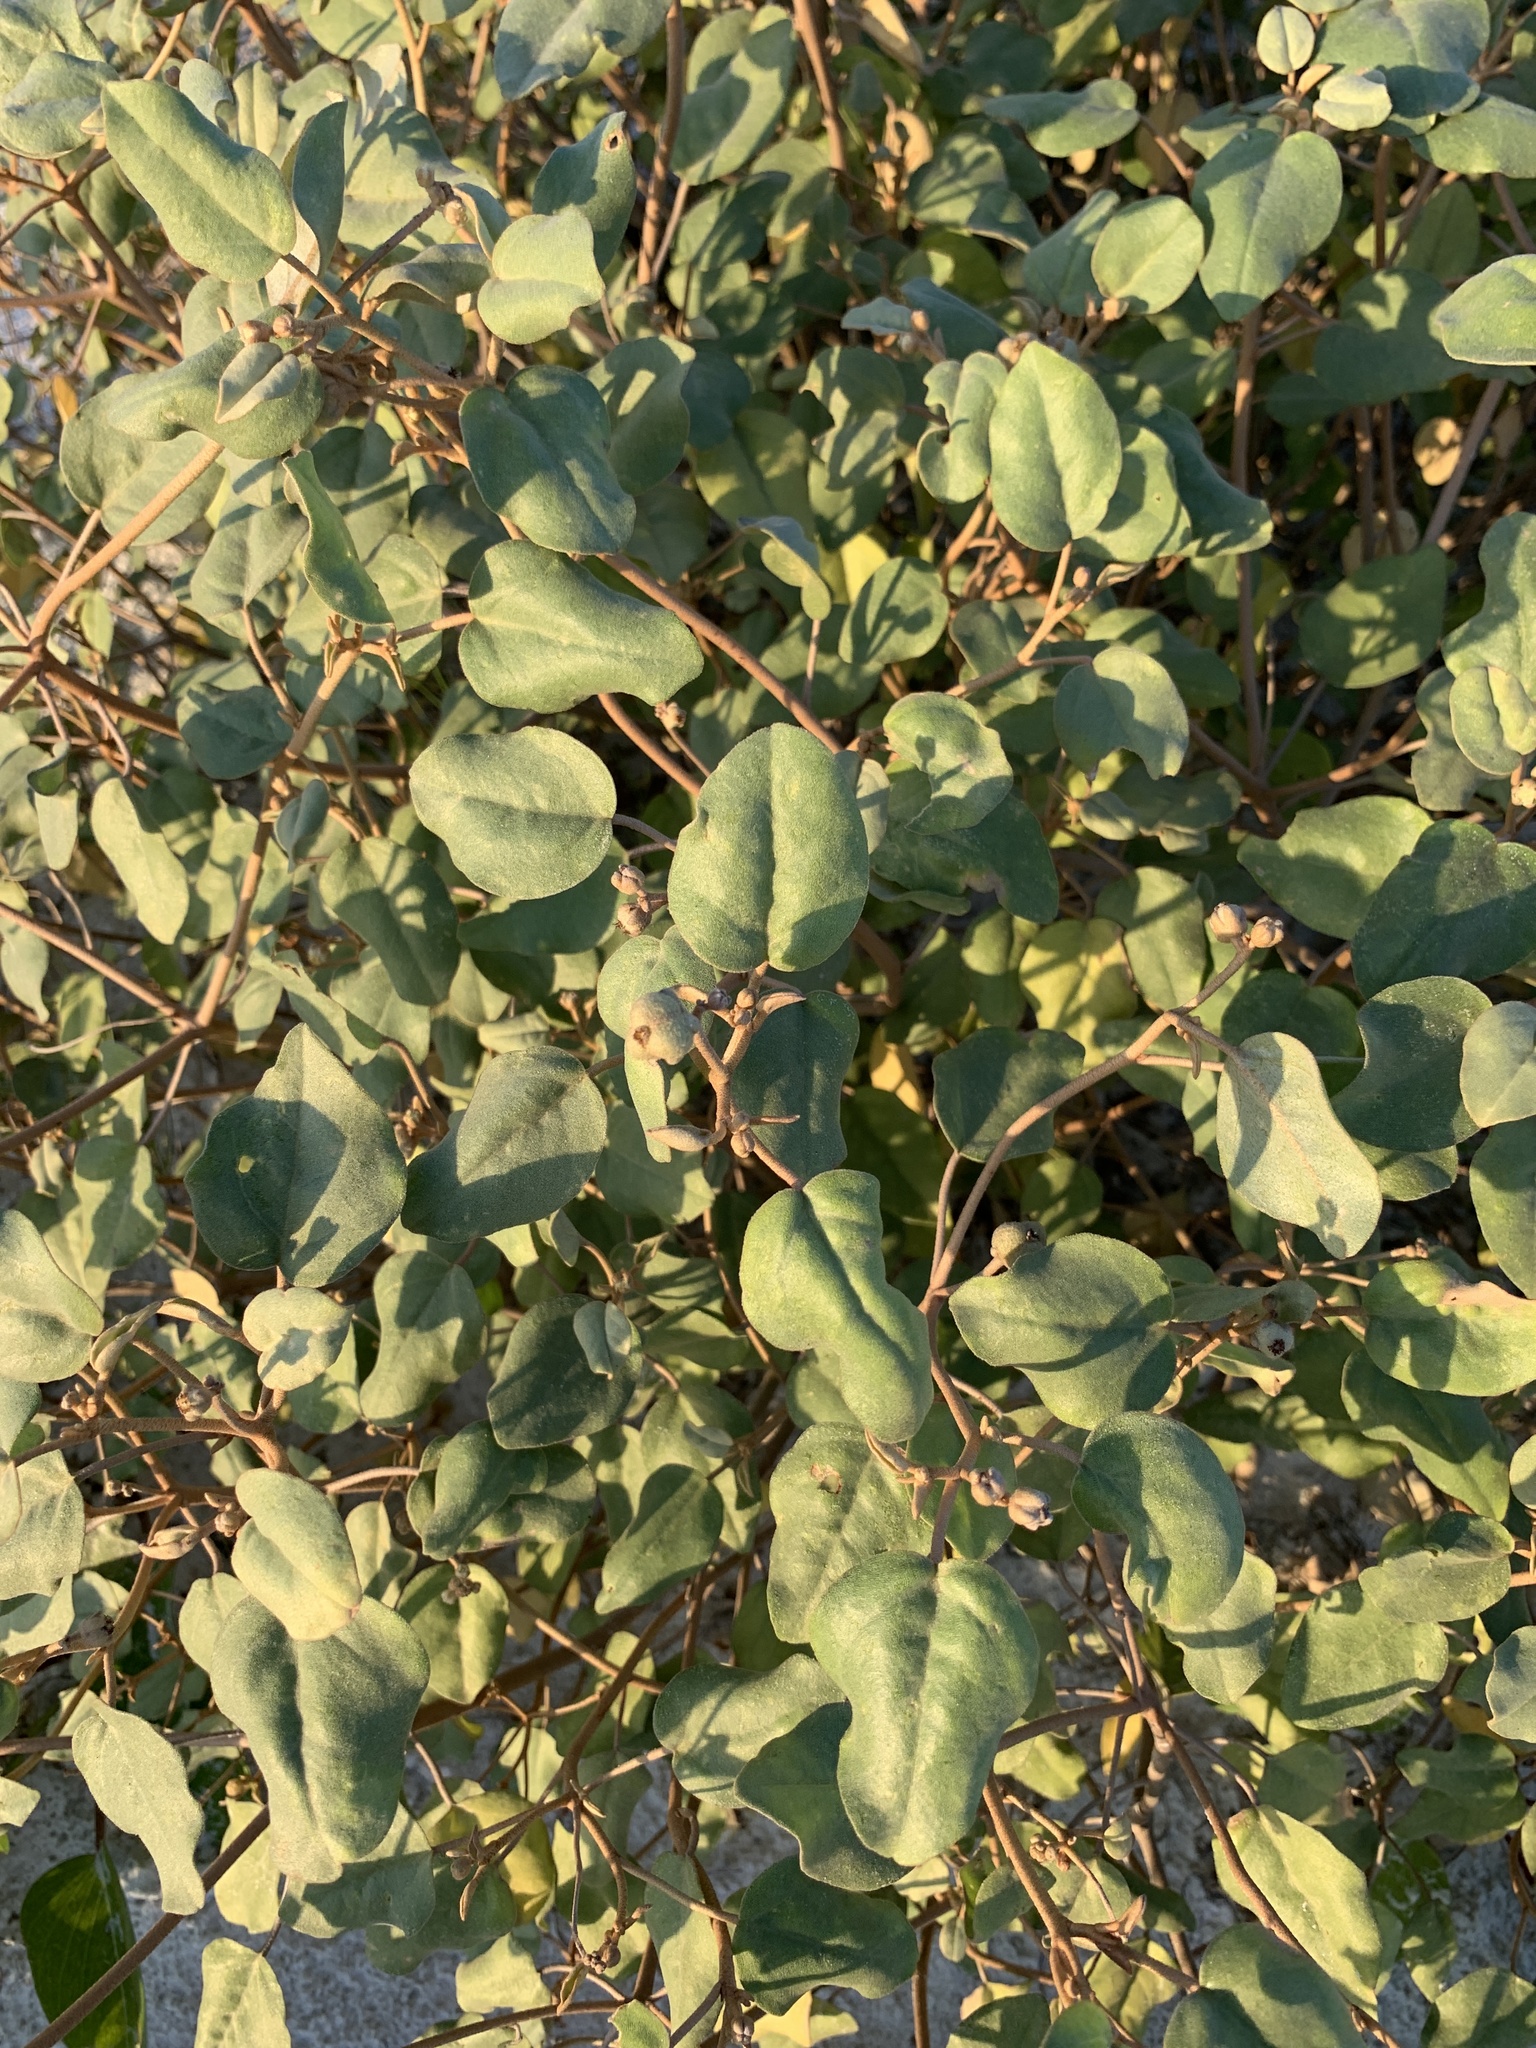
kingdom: Plantae
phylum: Tracheophyta
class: Magnoliopsida
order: Malpighiales
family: Euphorbiaceae
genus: Croton
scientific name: Croton punctatus
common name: Beach-tea
